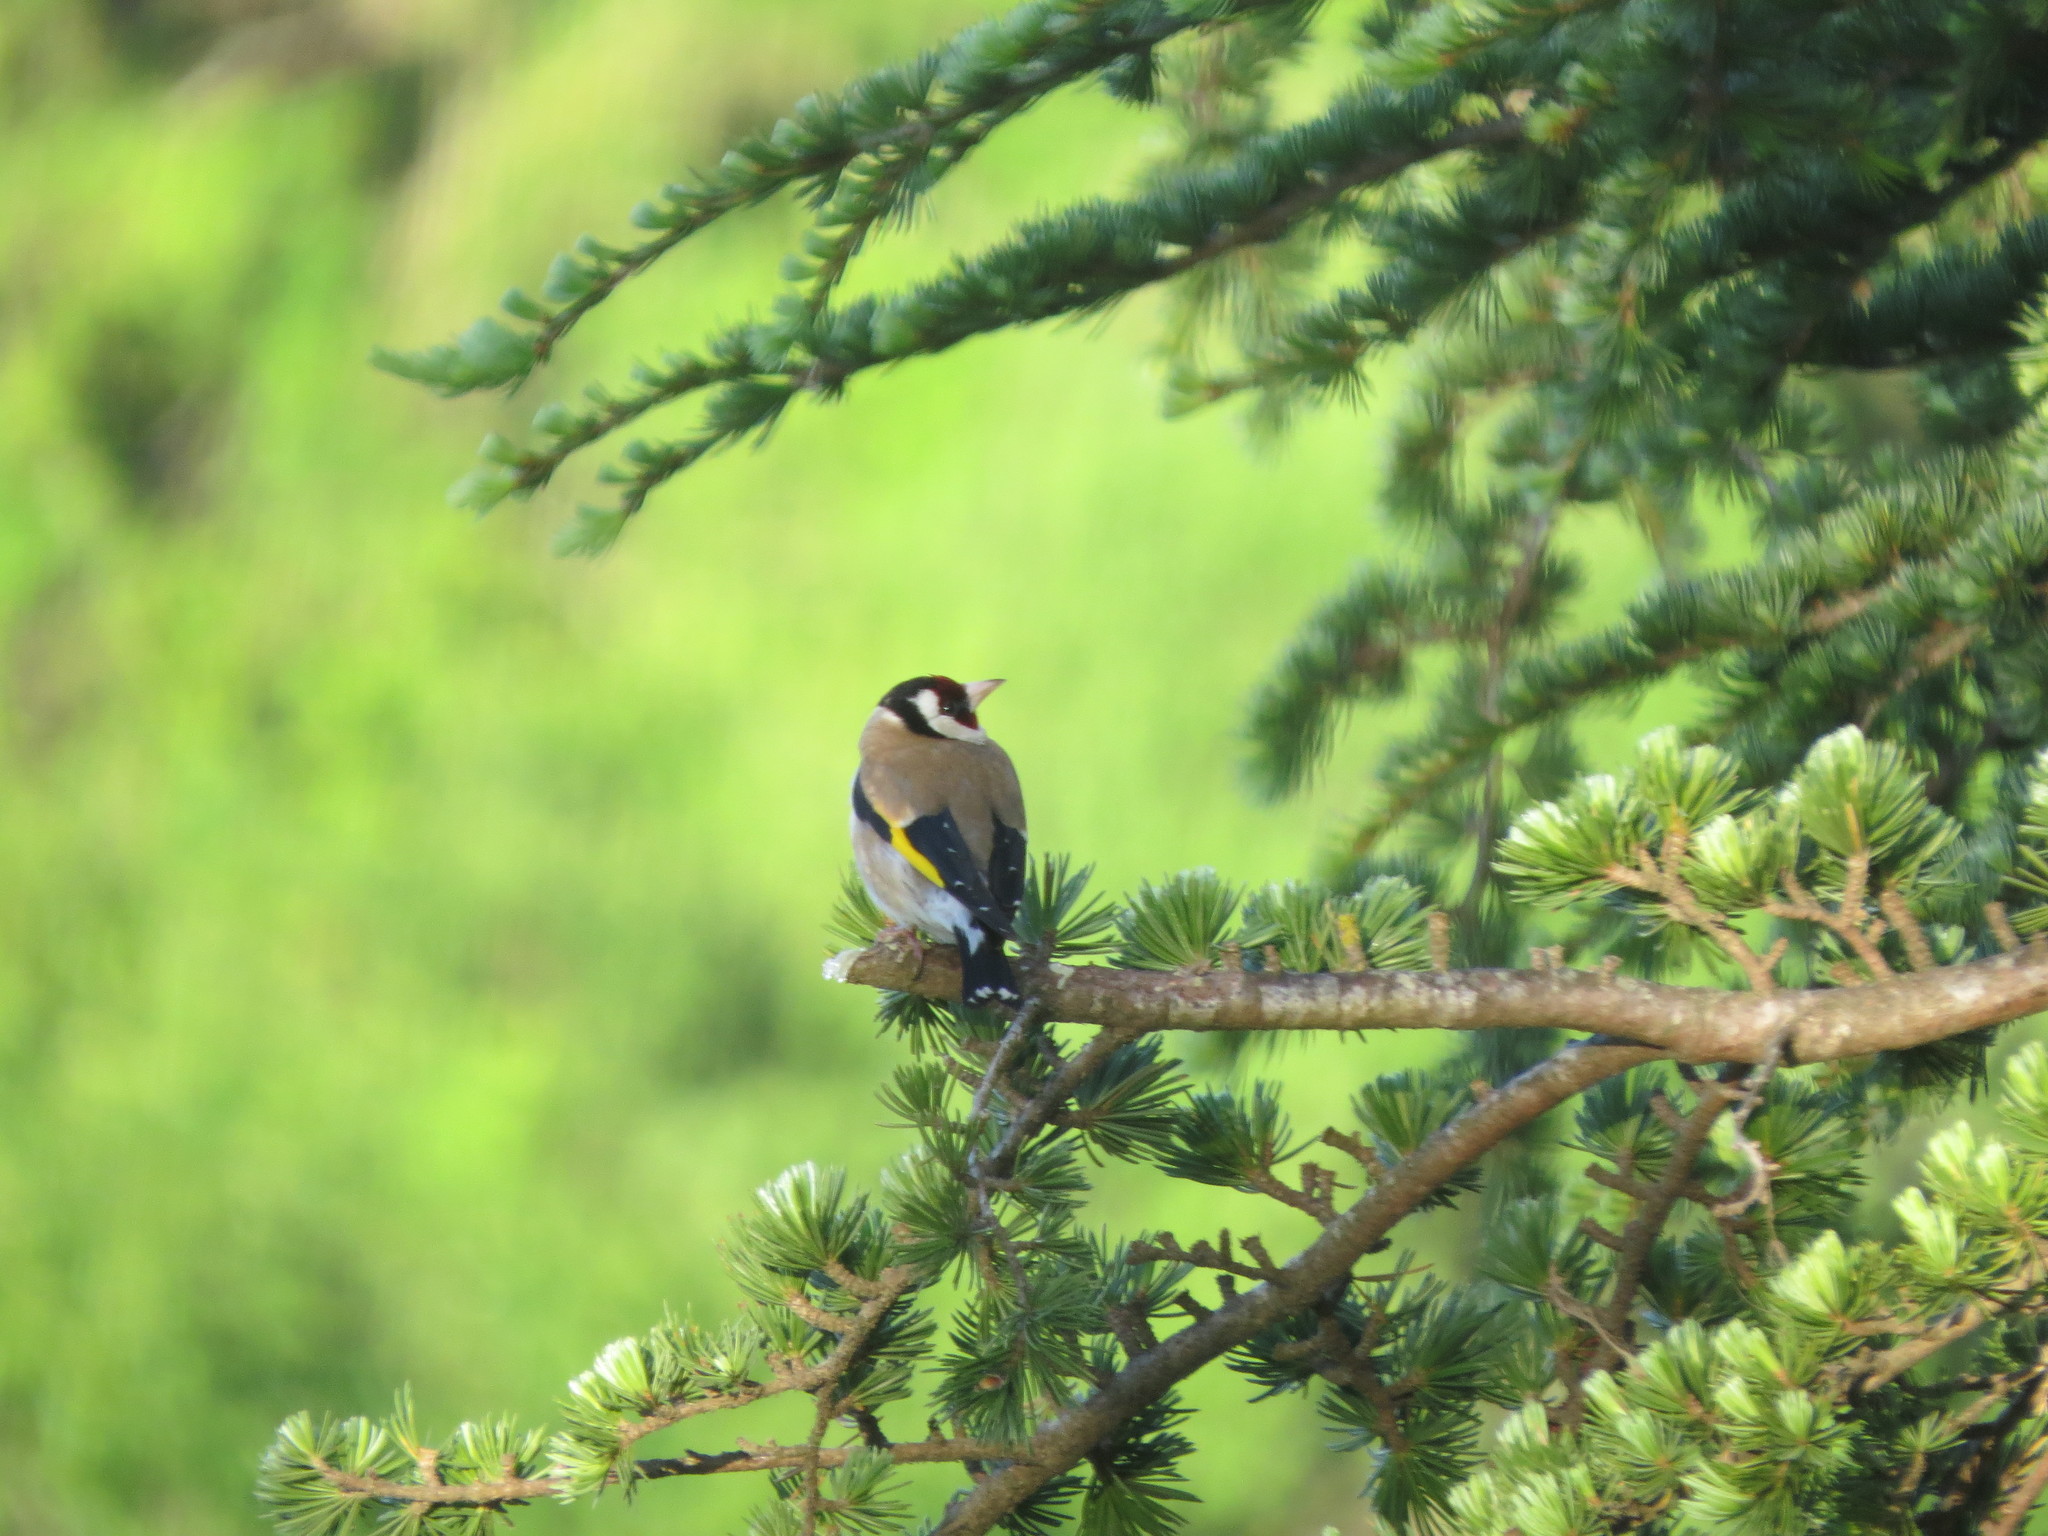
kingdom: Animalia
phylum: Chordata
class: Aves
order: Passeriformes
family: Fringillidae
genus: Carduelis
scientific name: Carduelis carduelis
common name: European goldfinch
